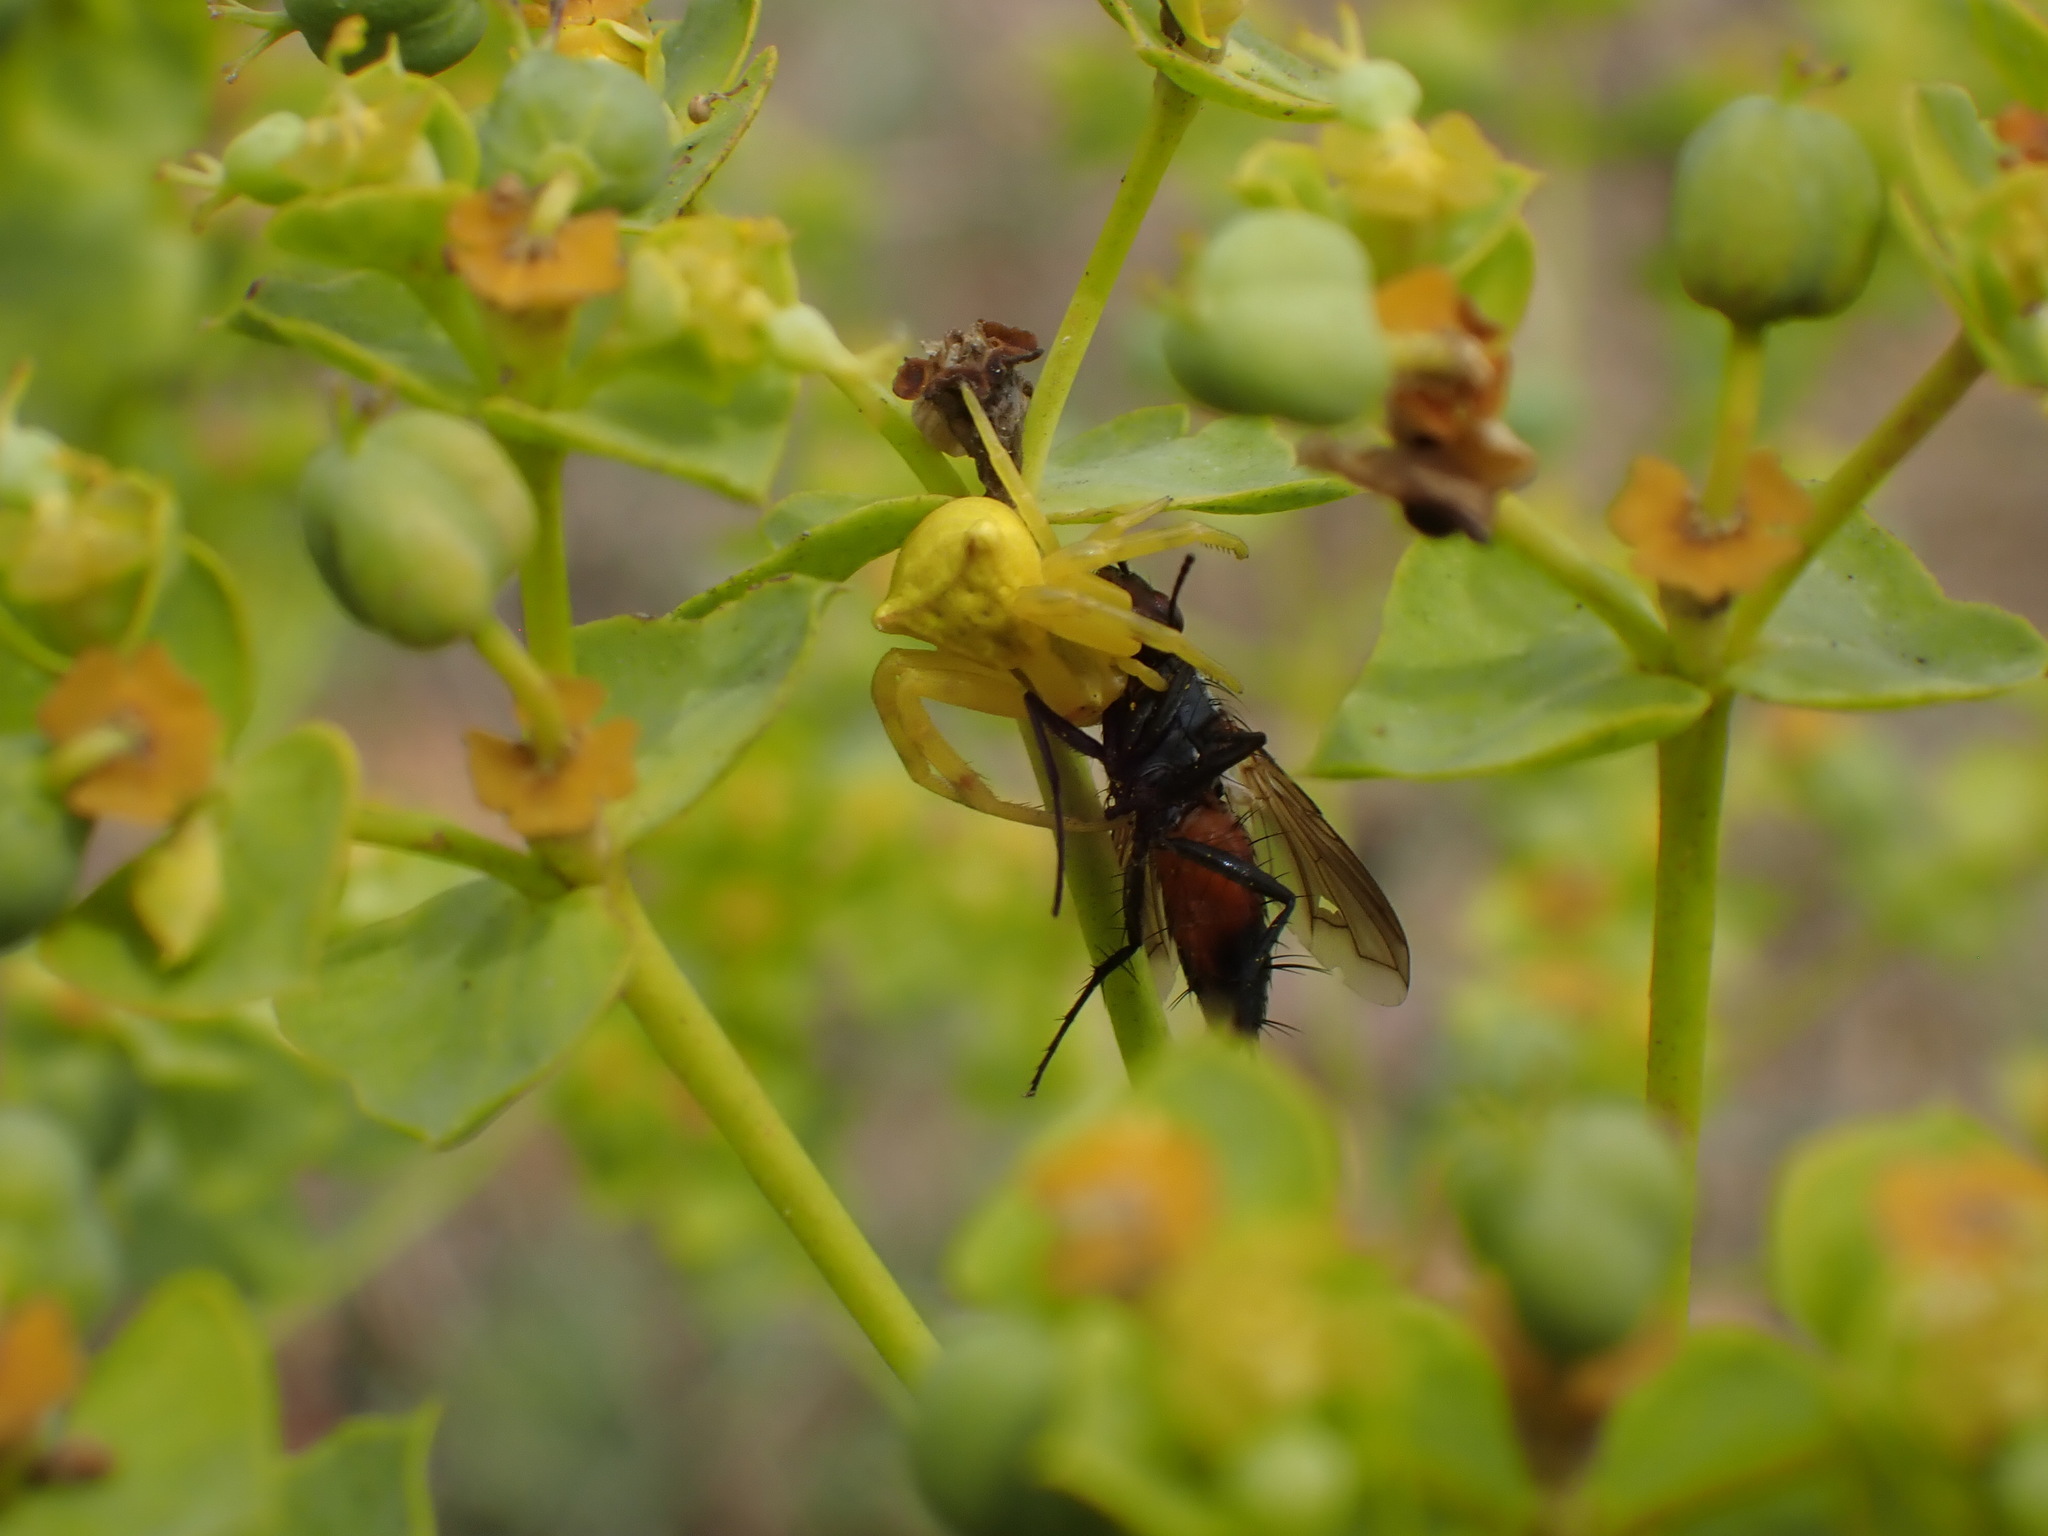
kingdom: Animalia
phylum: Arthropoda
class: Arachnida
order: Araneae
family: Thomisidae
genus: Thomisus
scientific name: Thomisus onustus
